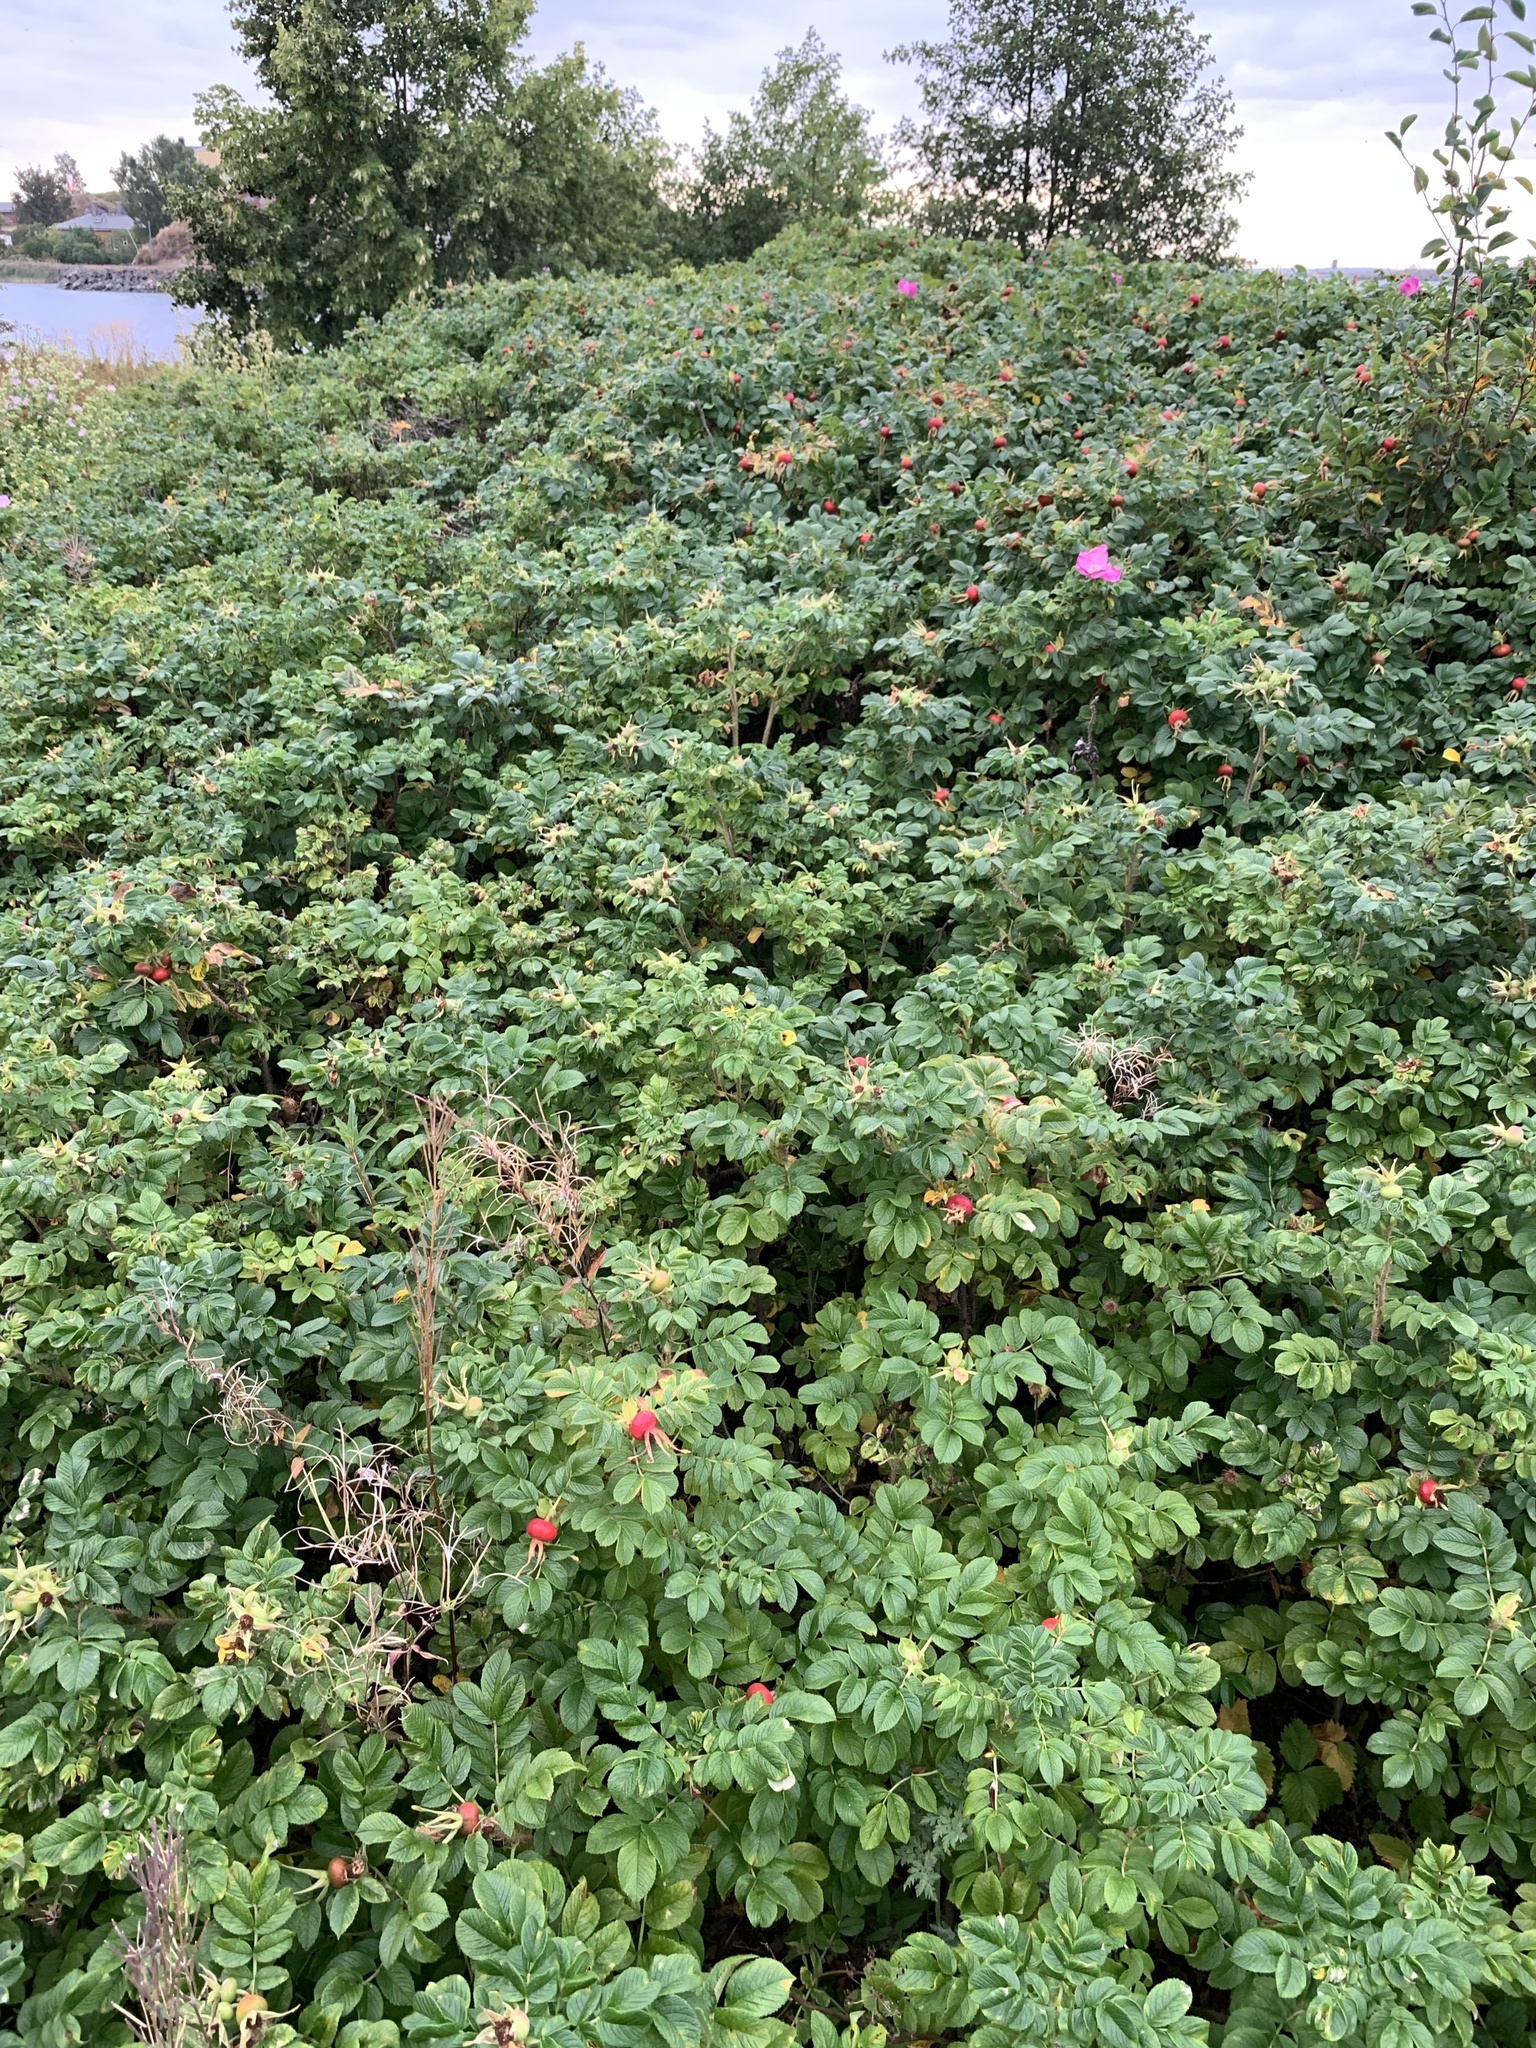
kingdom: Plantae
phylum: Tracheophyta
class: Magnoliopsida
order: Rosales
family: Rosaceae
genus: Rosa
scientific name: Rosa rugosa
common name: Japanese rose
